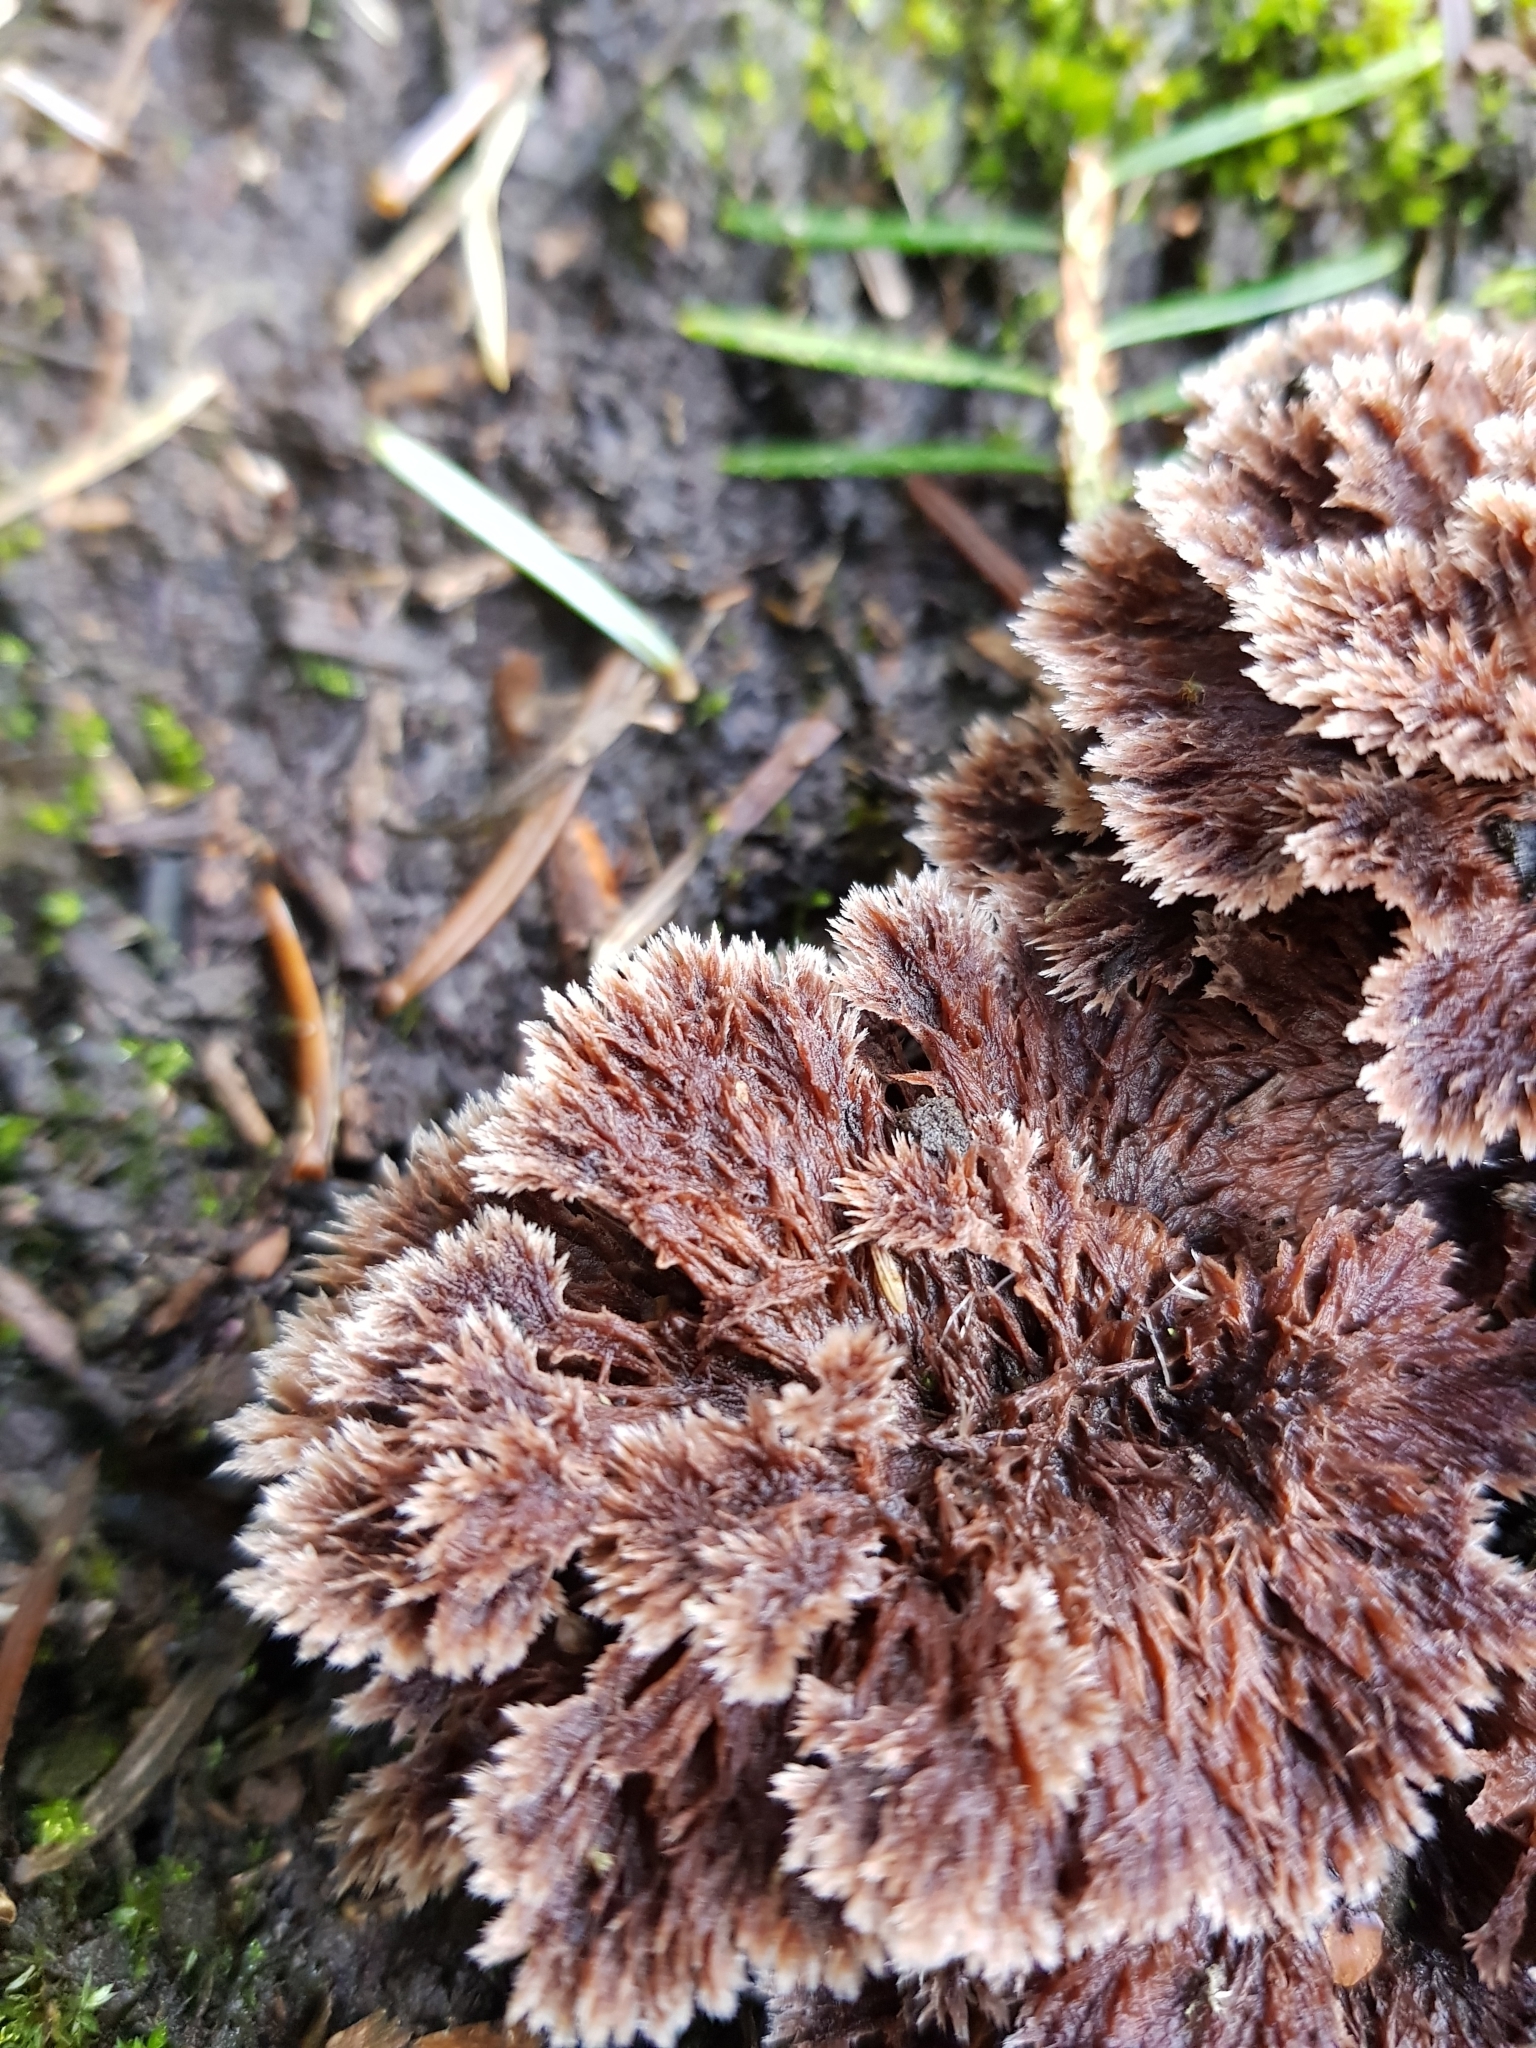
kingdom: Fungi
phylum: Basidiomycota
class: Agaricomycetes
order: Thelephorales
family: Thelephoraceae
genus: Thelephora
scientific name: Thelephora terrestris
